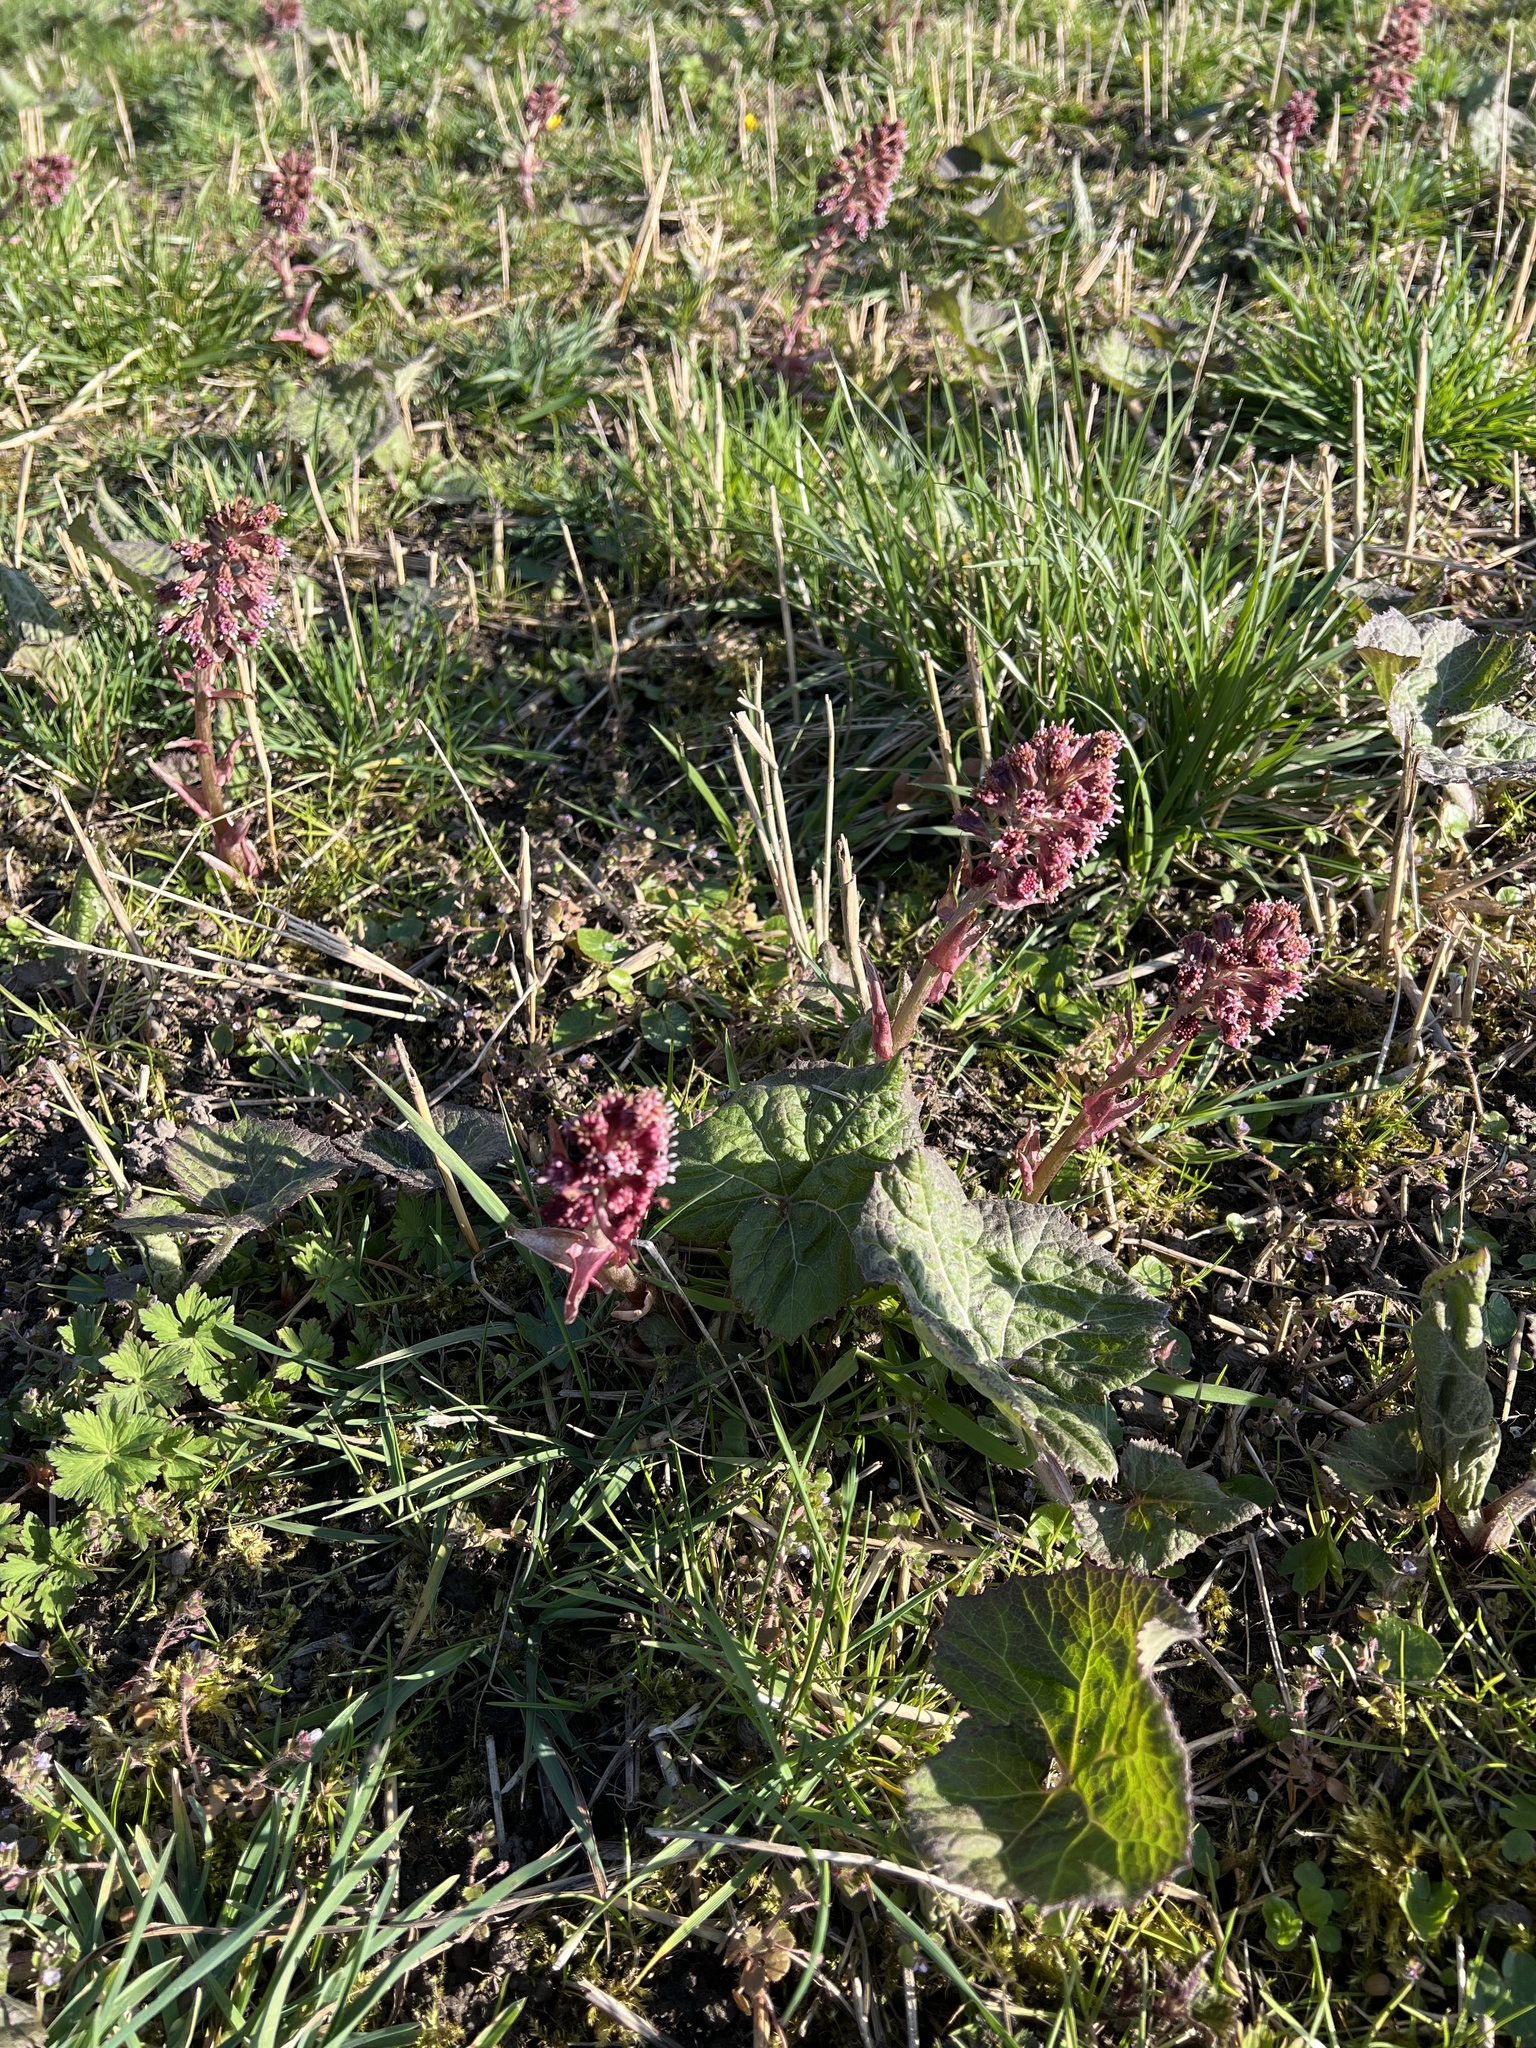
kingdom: Plantae
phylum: Tracheophyta
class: Magnoliopsida
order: Asterales
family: Asteraceae
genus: Petasites
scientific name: Petasites hybridus
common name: Butterbur
